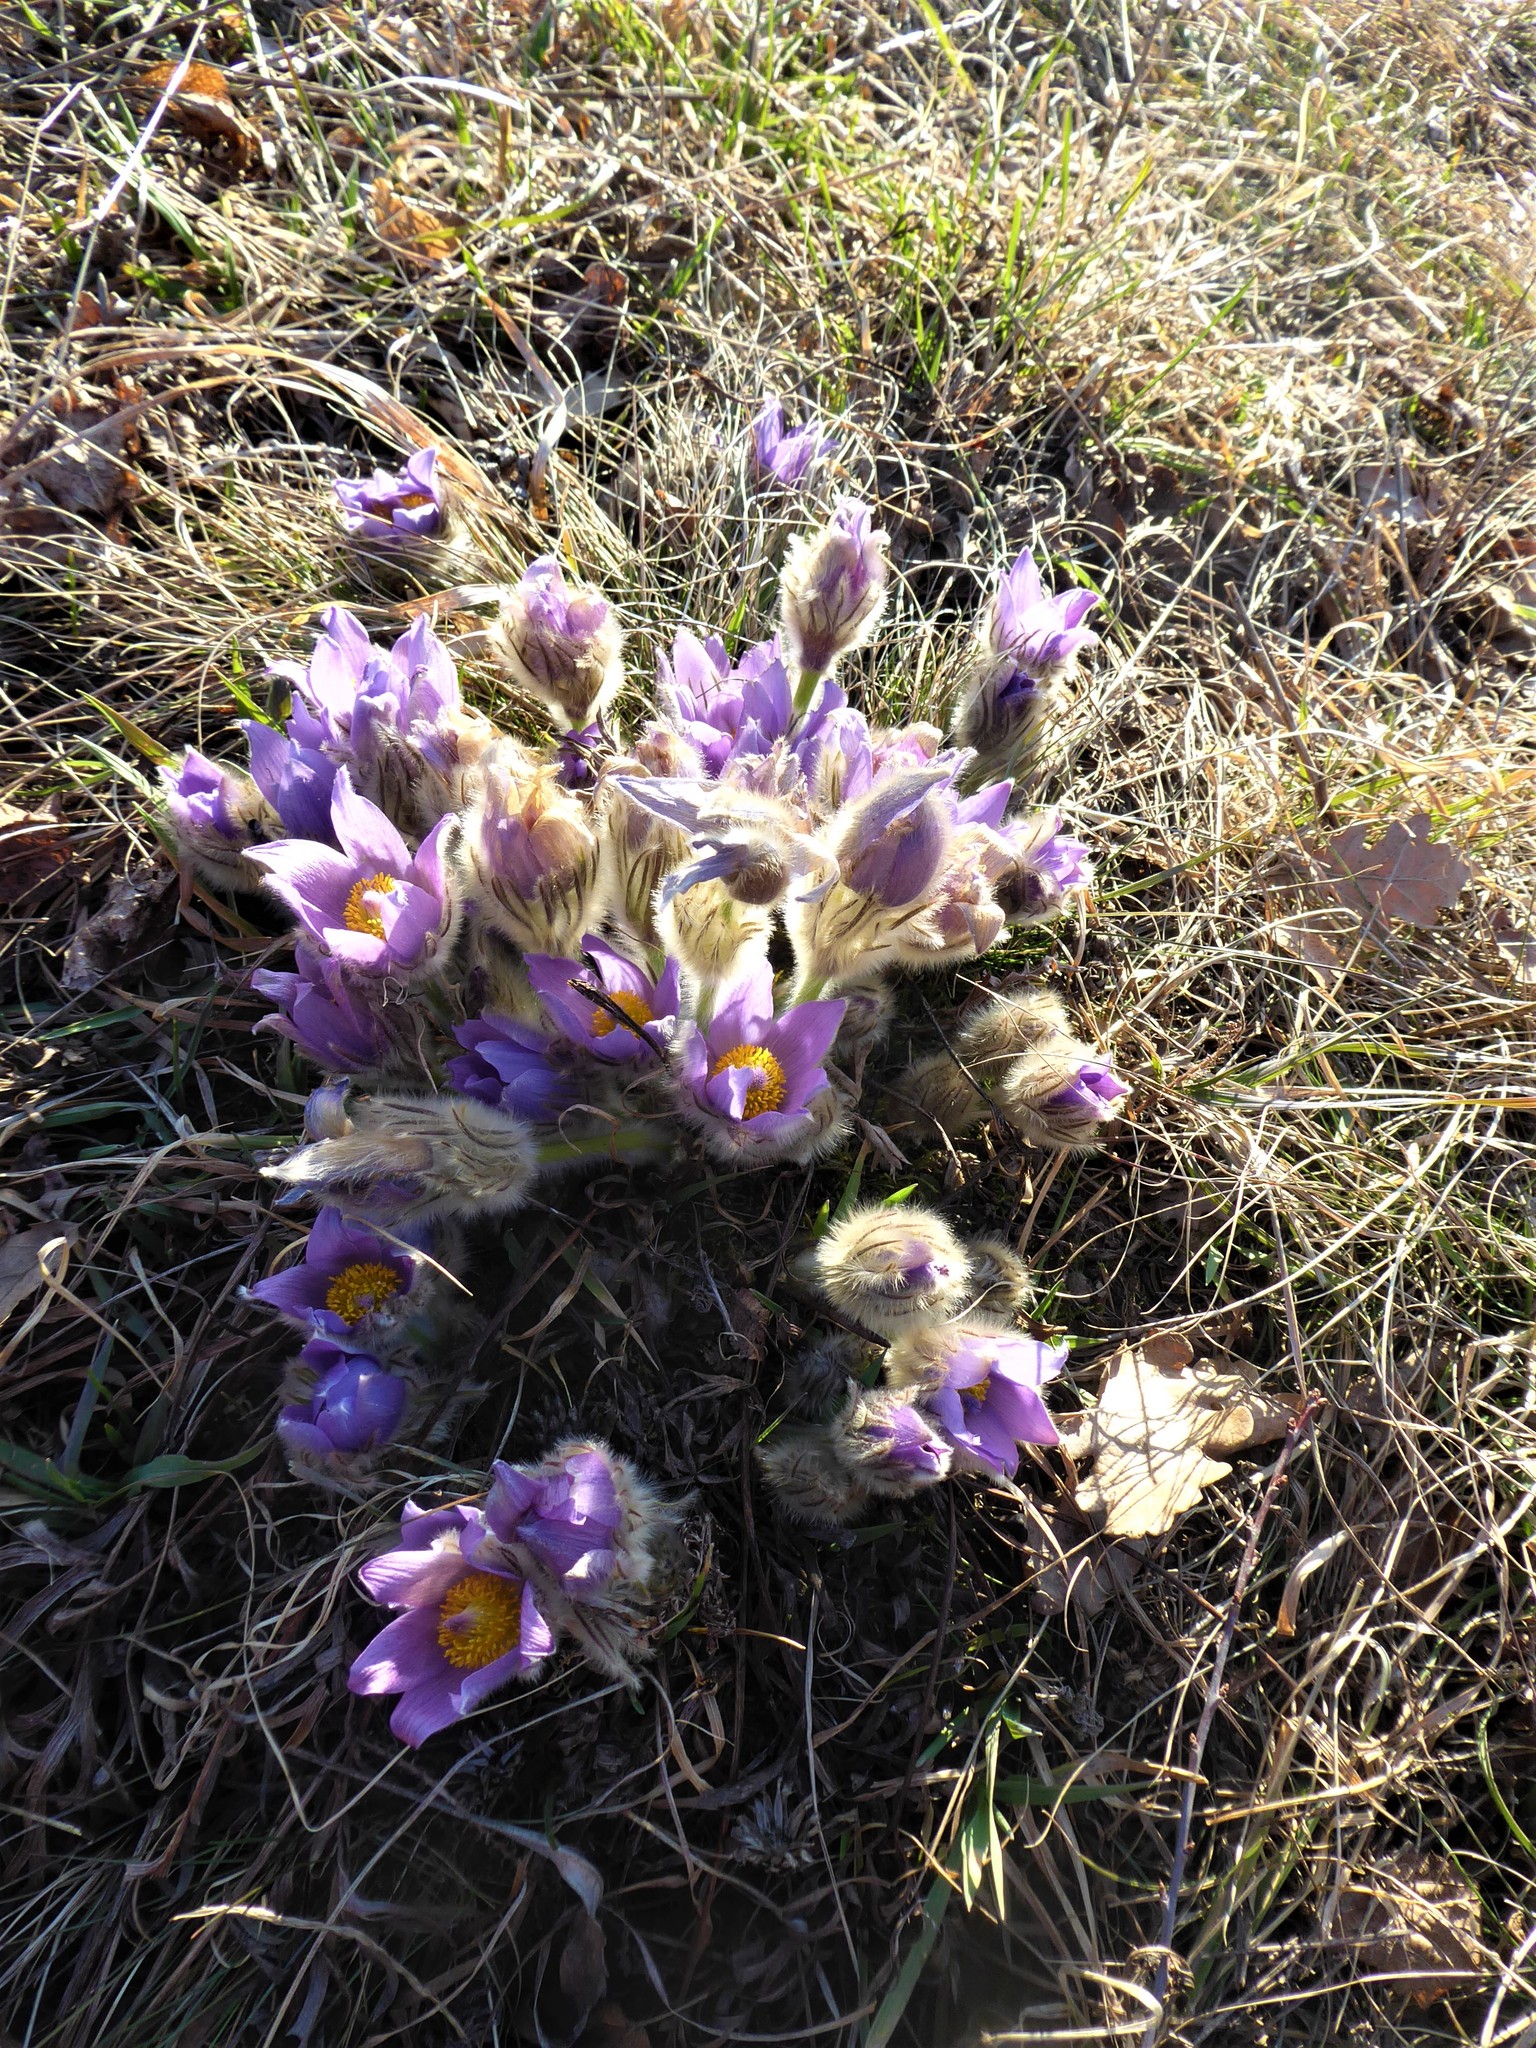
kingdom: Plantae
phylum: Tracheophyta
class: Magnoliopsida
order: Ranunculales
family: Ranunculaceae
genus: Pulsatilla
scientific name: Pulsatilla grandis
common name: Greater pasque flower
